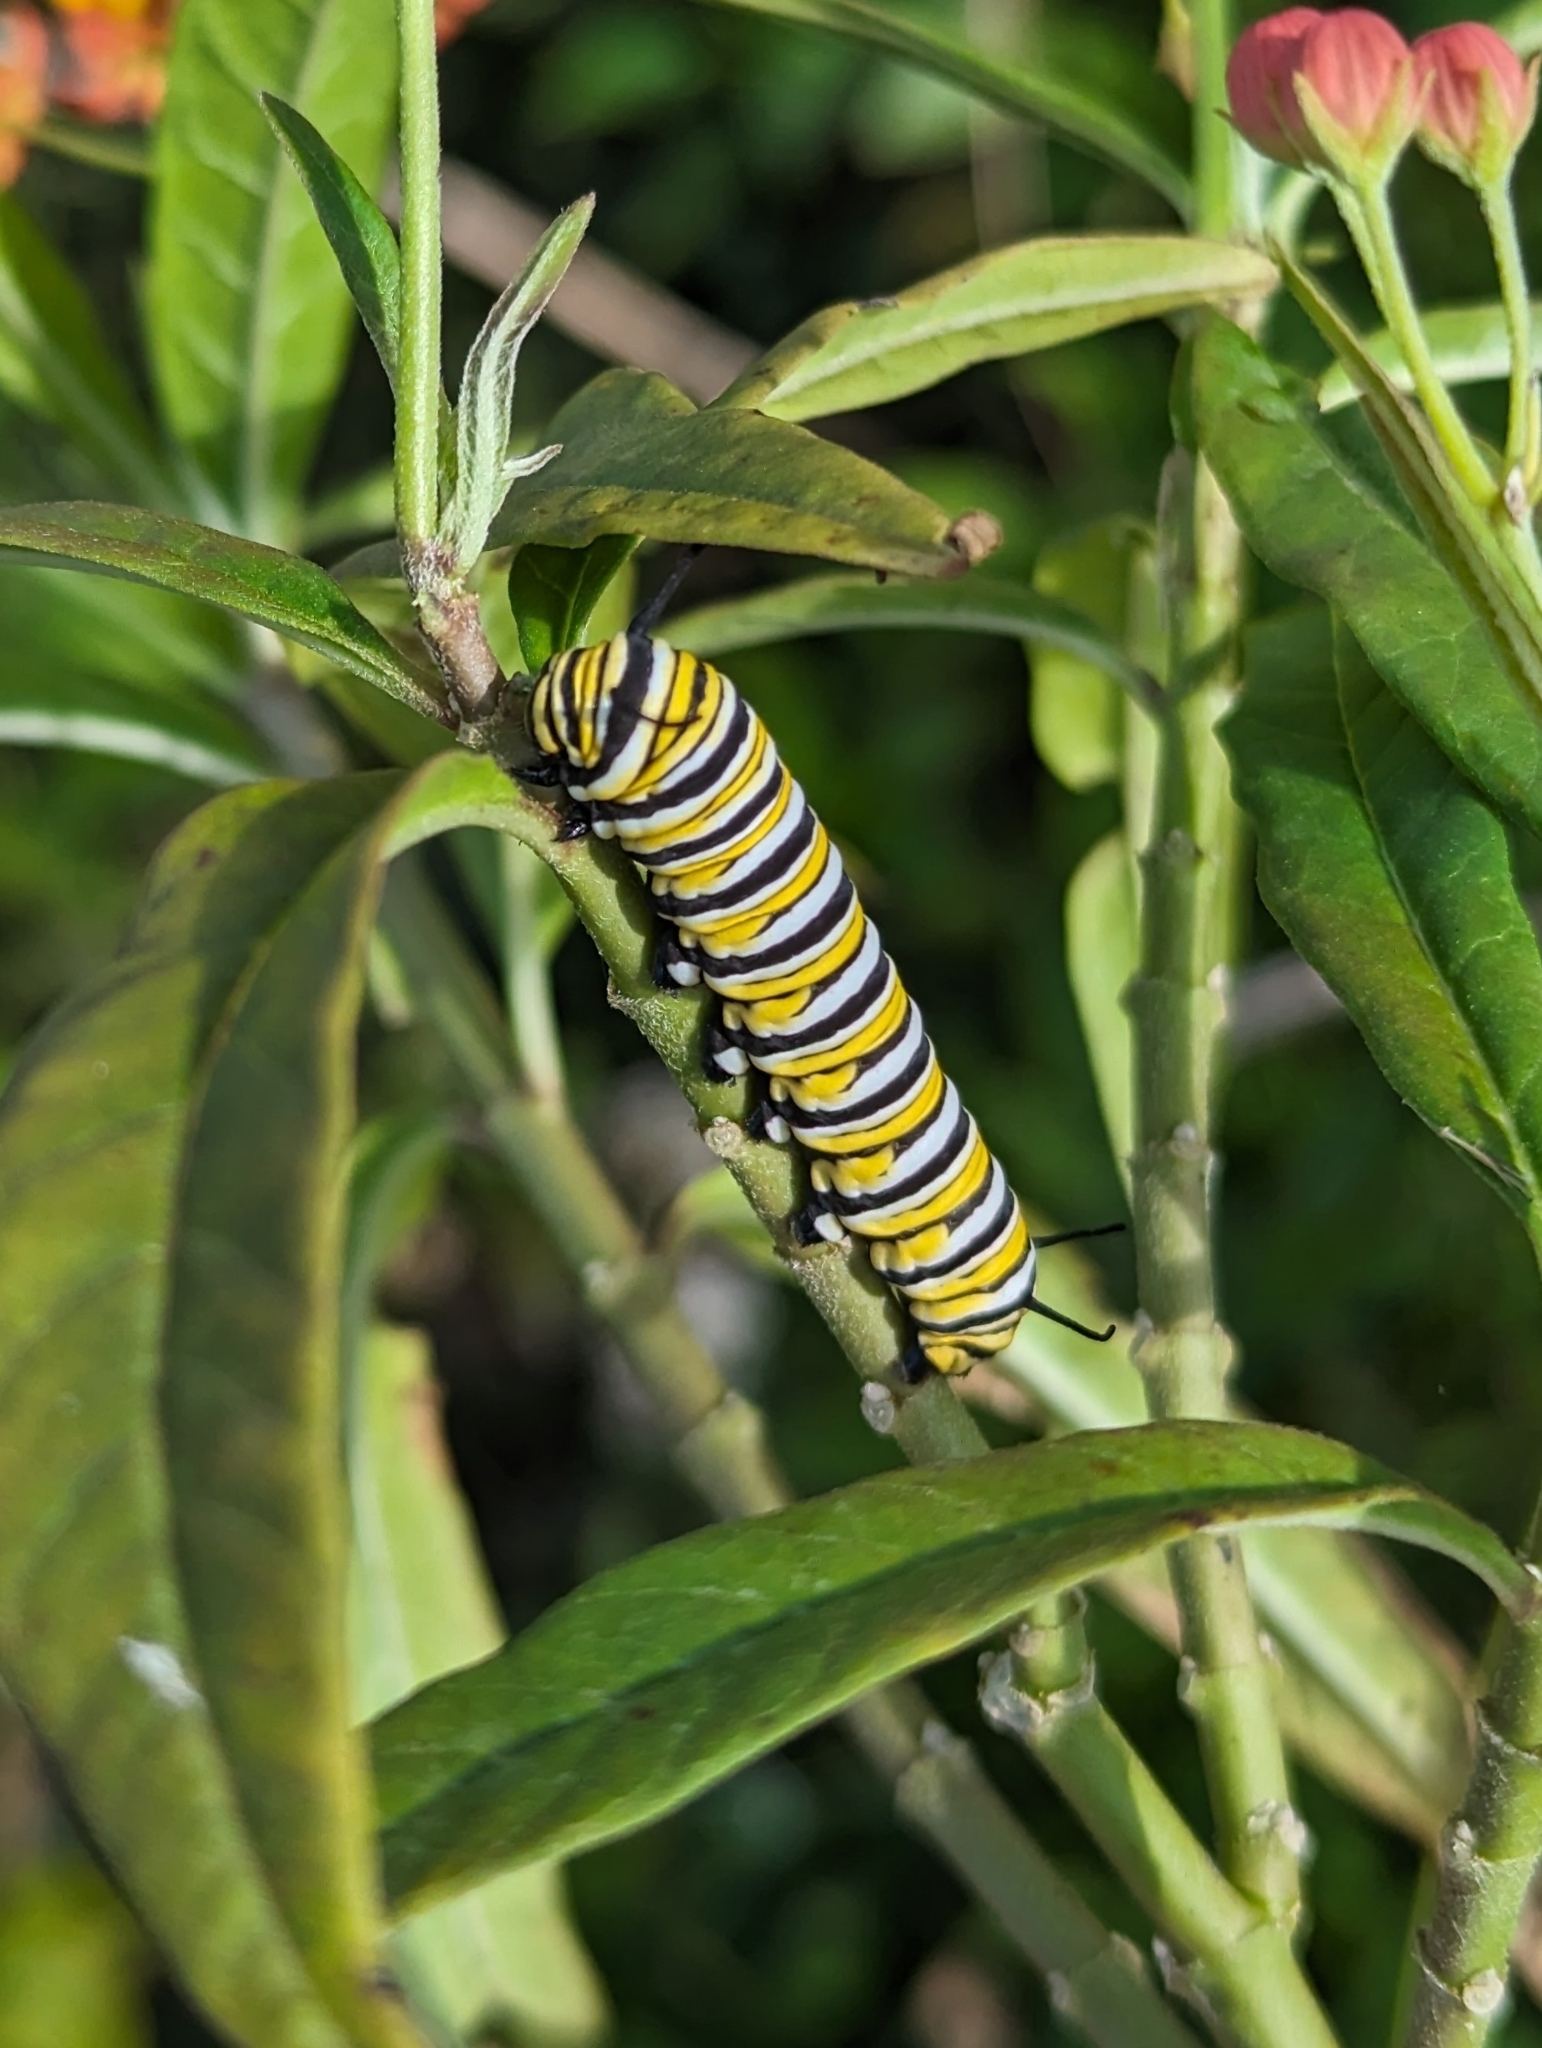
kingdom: Animalia
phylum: Arthropoda
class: Insecta
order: Lepidoptera
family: Nymphalidae
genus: Danaus
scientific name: Danaus plexippus
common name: Monarch
